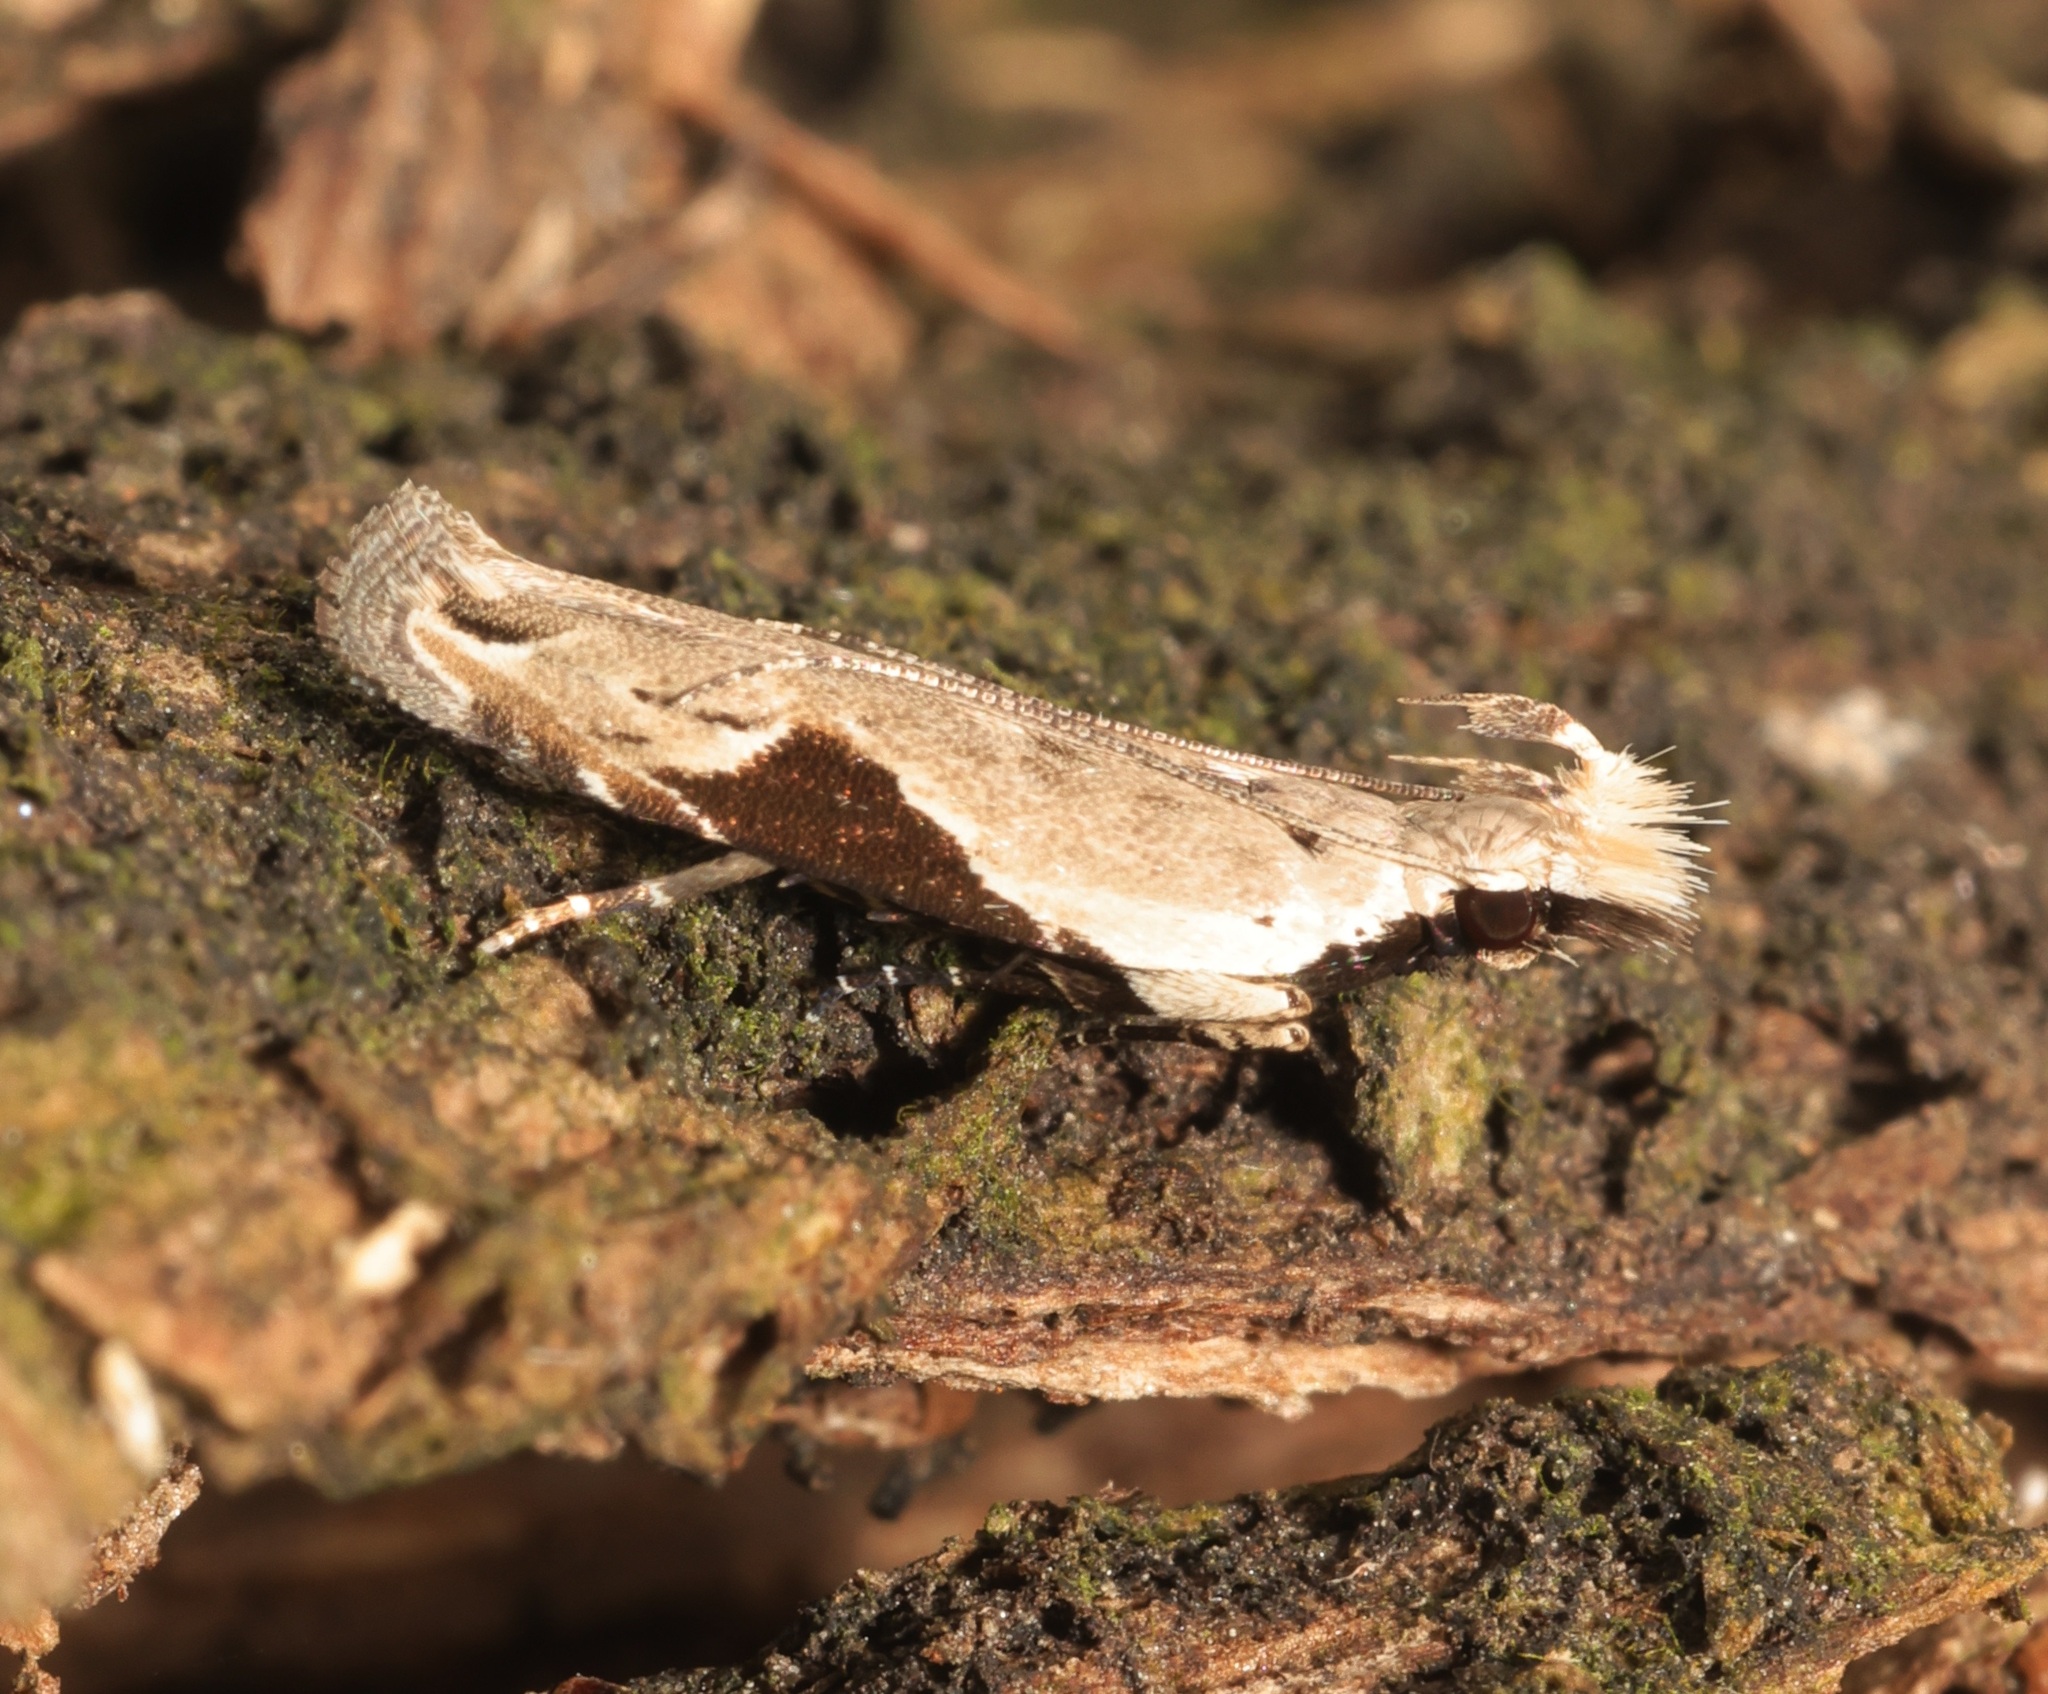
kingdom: Animalia
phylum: Arthropoda
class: Insecta
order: Lepidoptera
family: Gelechiidae
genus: Hypatima
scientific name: Hypatima verticosa
